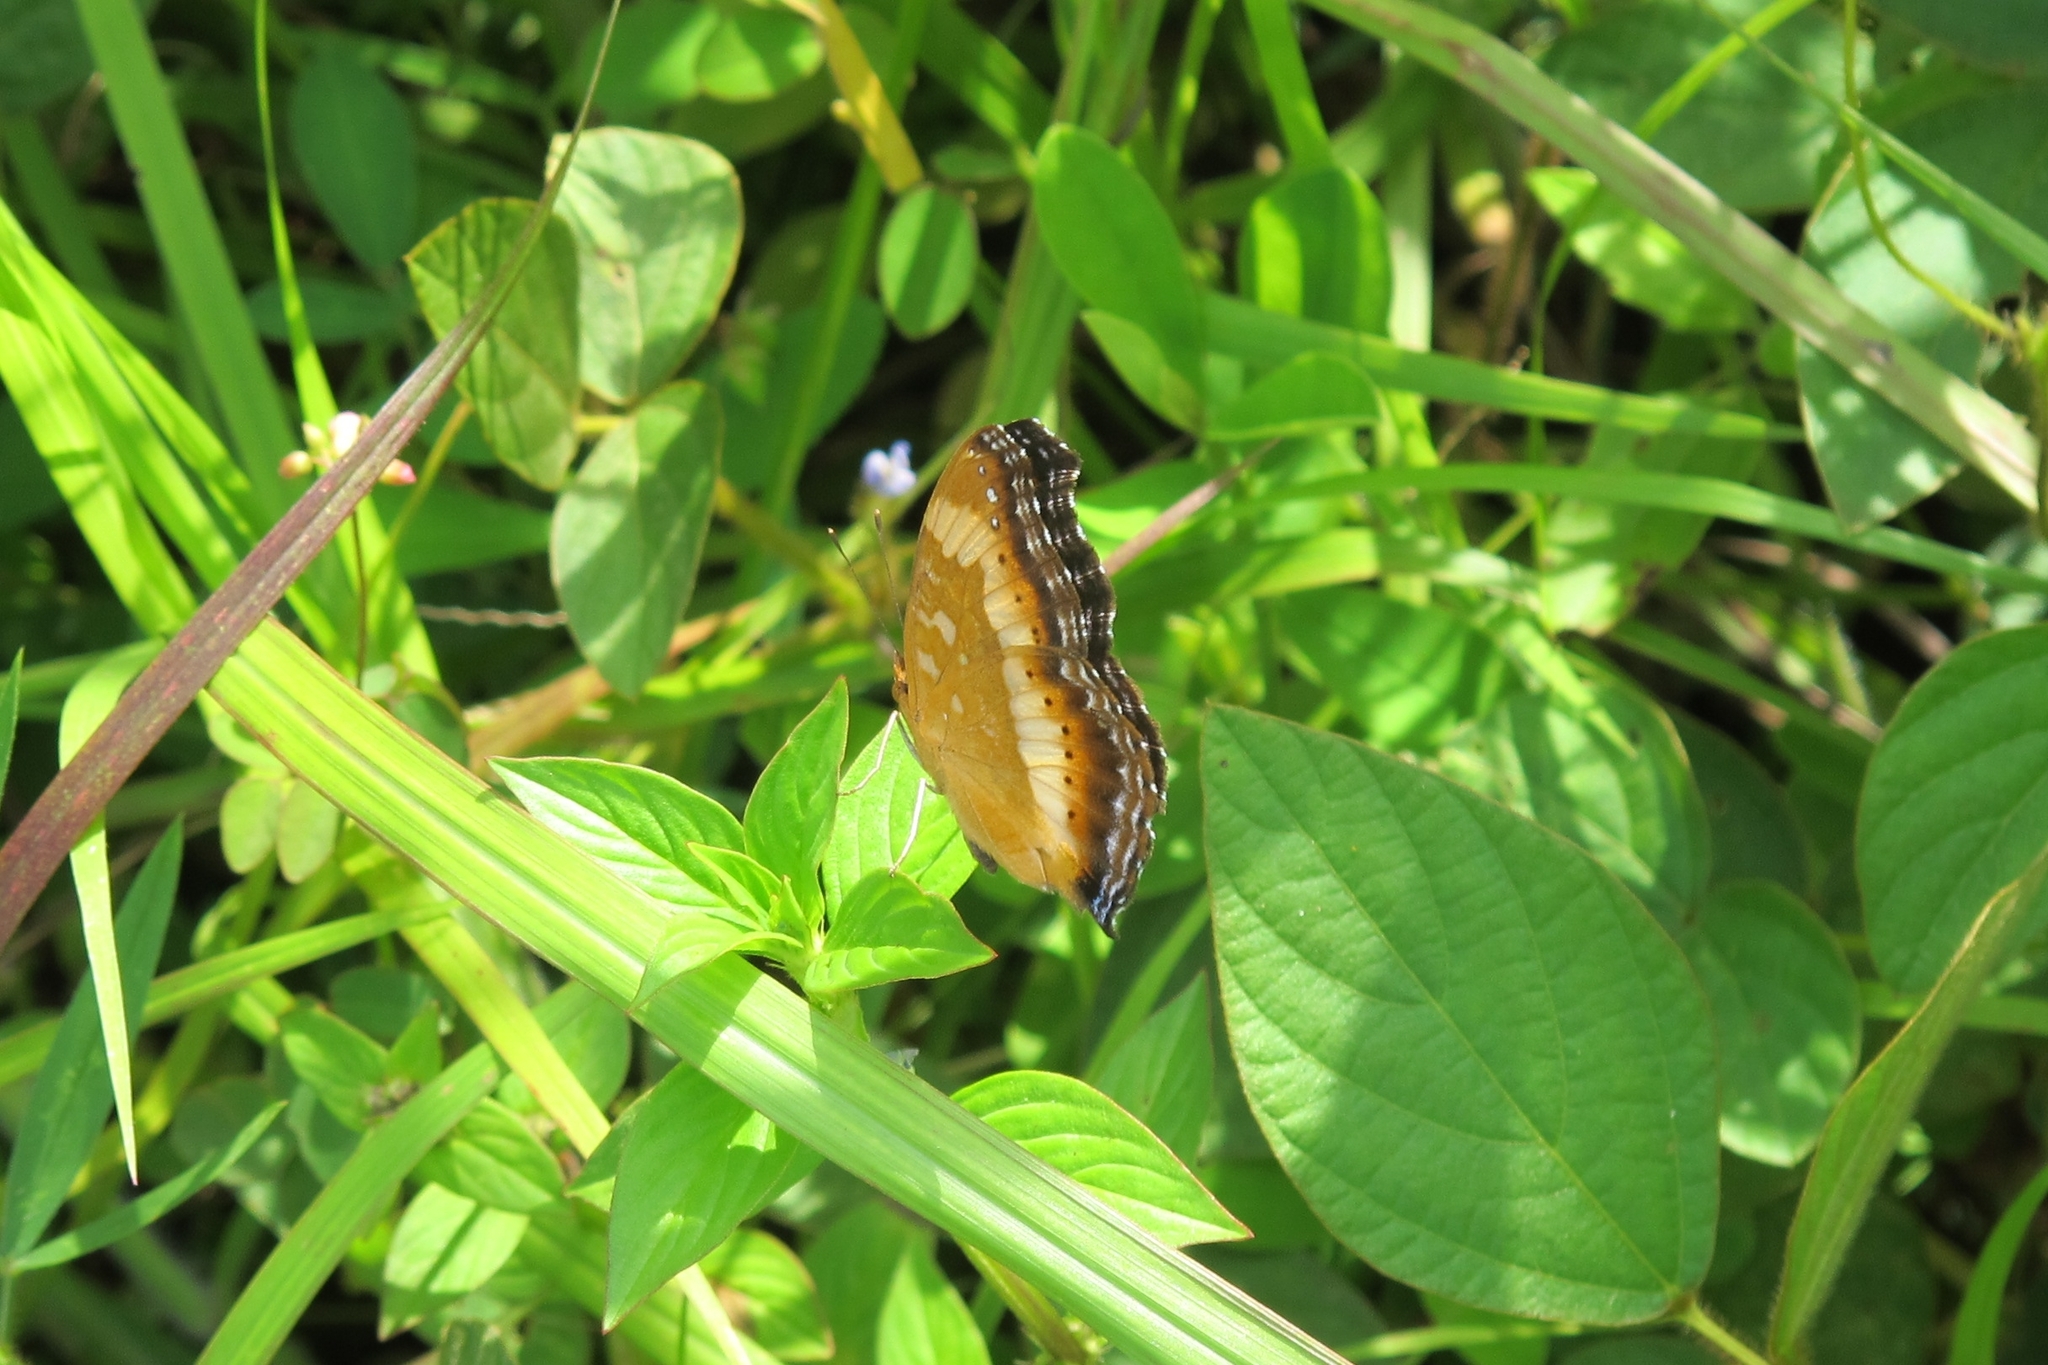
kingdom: Animalia
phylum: Arthropoda
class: Insecta
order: Lepidoptera
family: Nymphalidae
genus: Precis
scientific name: Precis pelarga
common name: Fashion commodore
